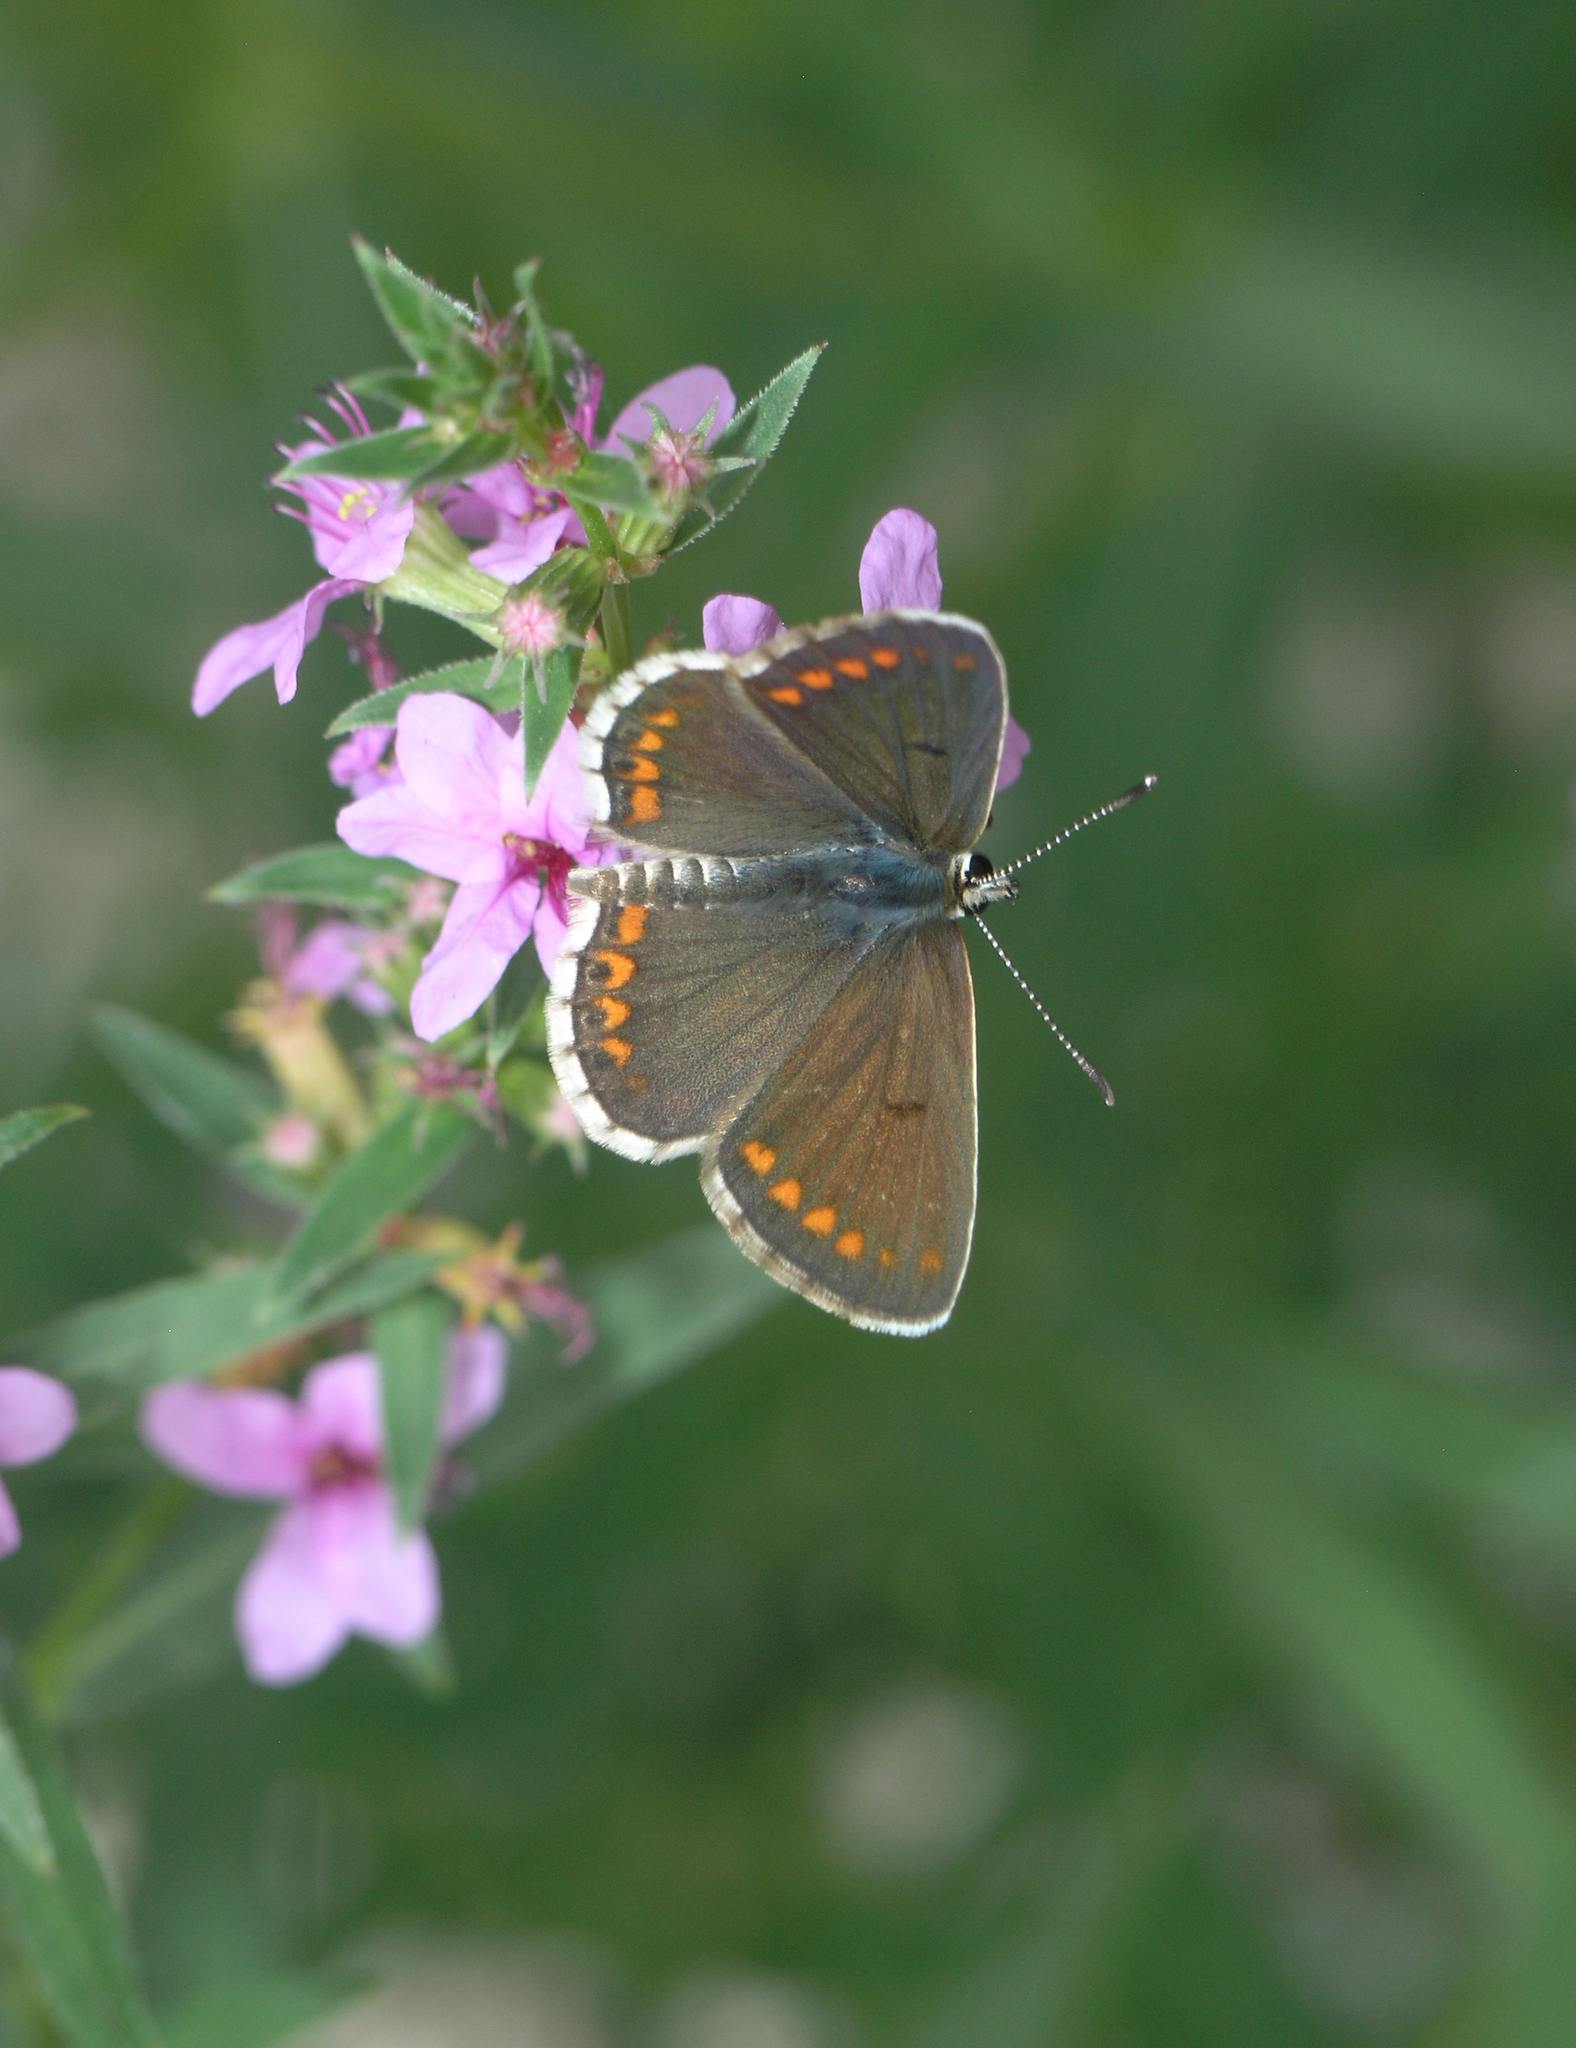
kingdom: Animalia
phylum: Arthropoda
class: Insecta
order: Lepidoptera
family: Lycaenidae
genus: Polyommatus
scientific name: Polyommatus icarus
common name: Common blue
